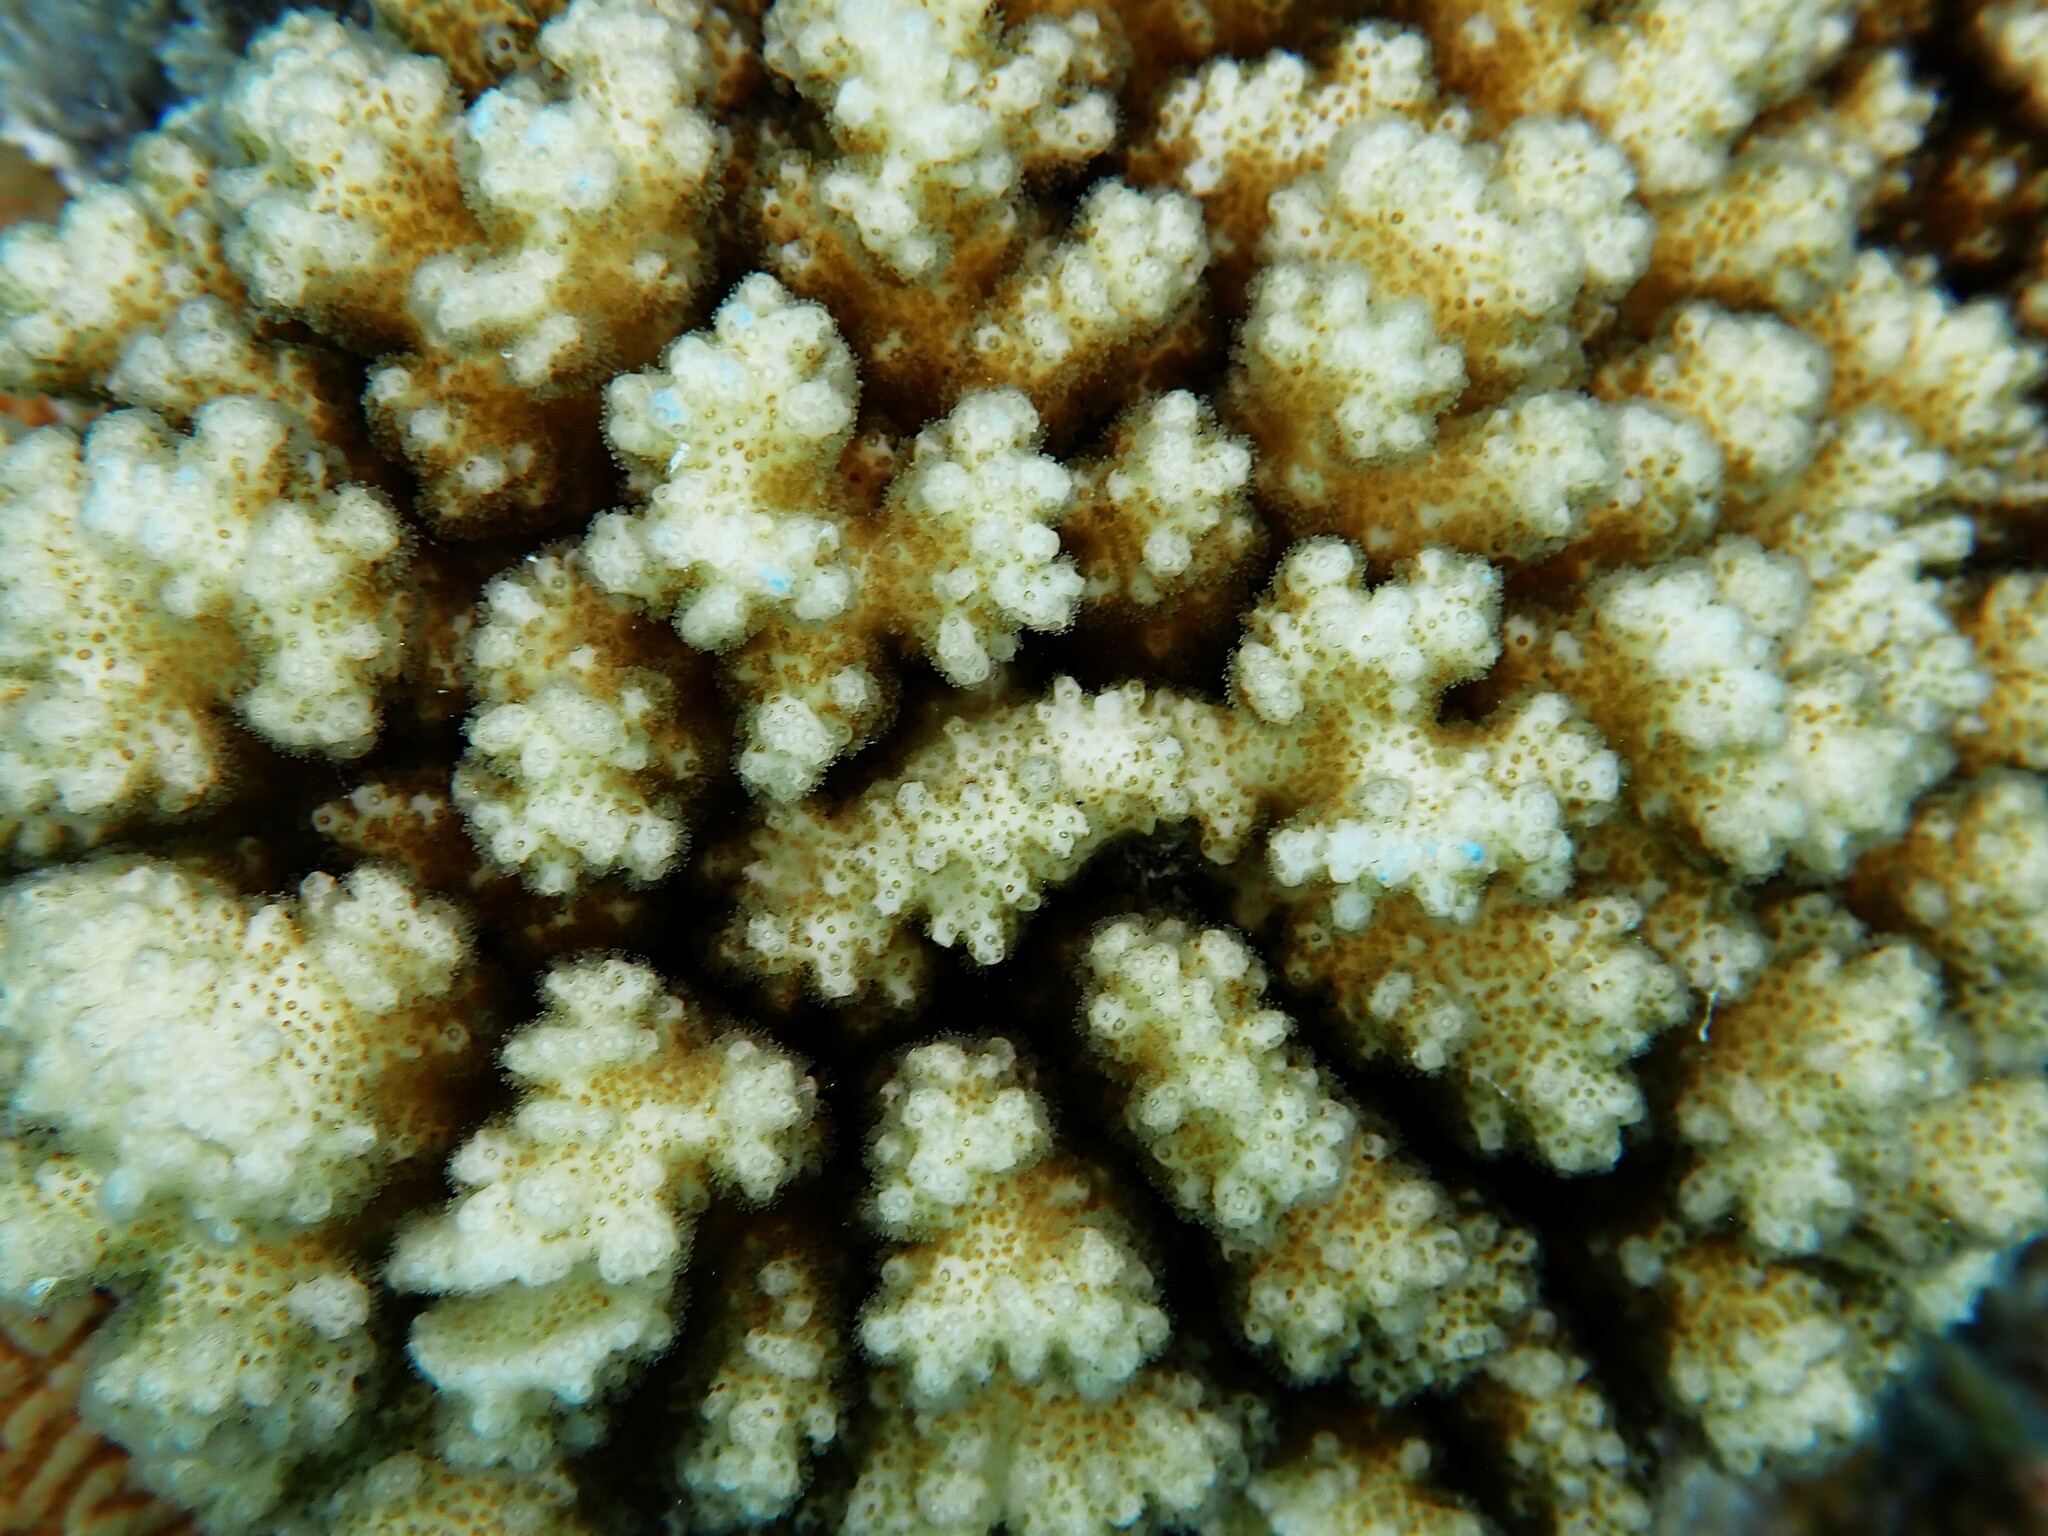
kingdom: Animalia
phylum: Cnidaria
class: Anthozoa
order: Scleractinia
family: Pocilloporidae
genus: Pocillopora
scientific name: Pocillopora damicornis
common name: Cauliflower coral
